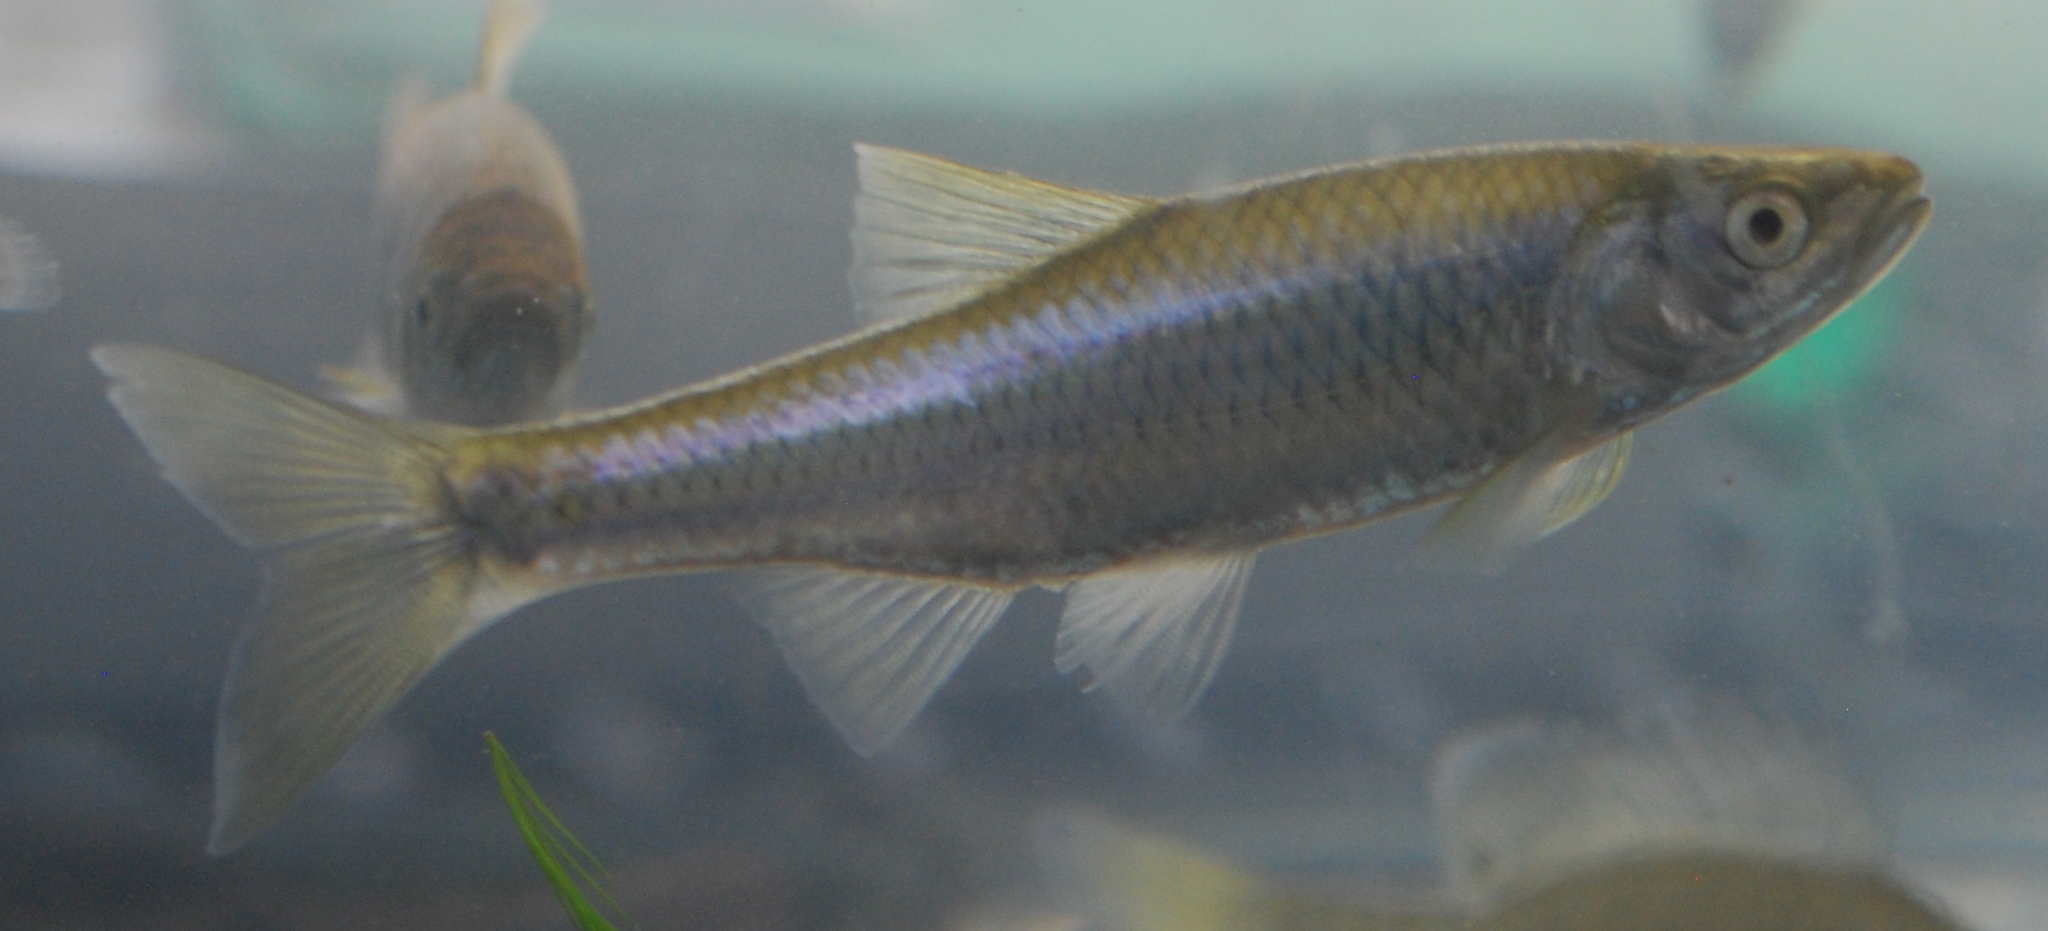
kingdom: Animalia
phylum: Chordata
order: Cypriniformes
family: Cyprinidae
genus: Cyprinella
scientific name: Cyprinella spiloptera
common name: Spotfin shiner
